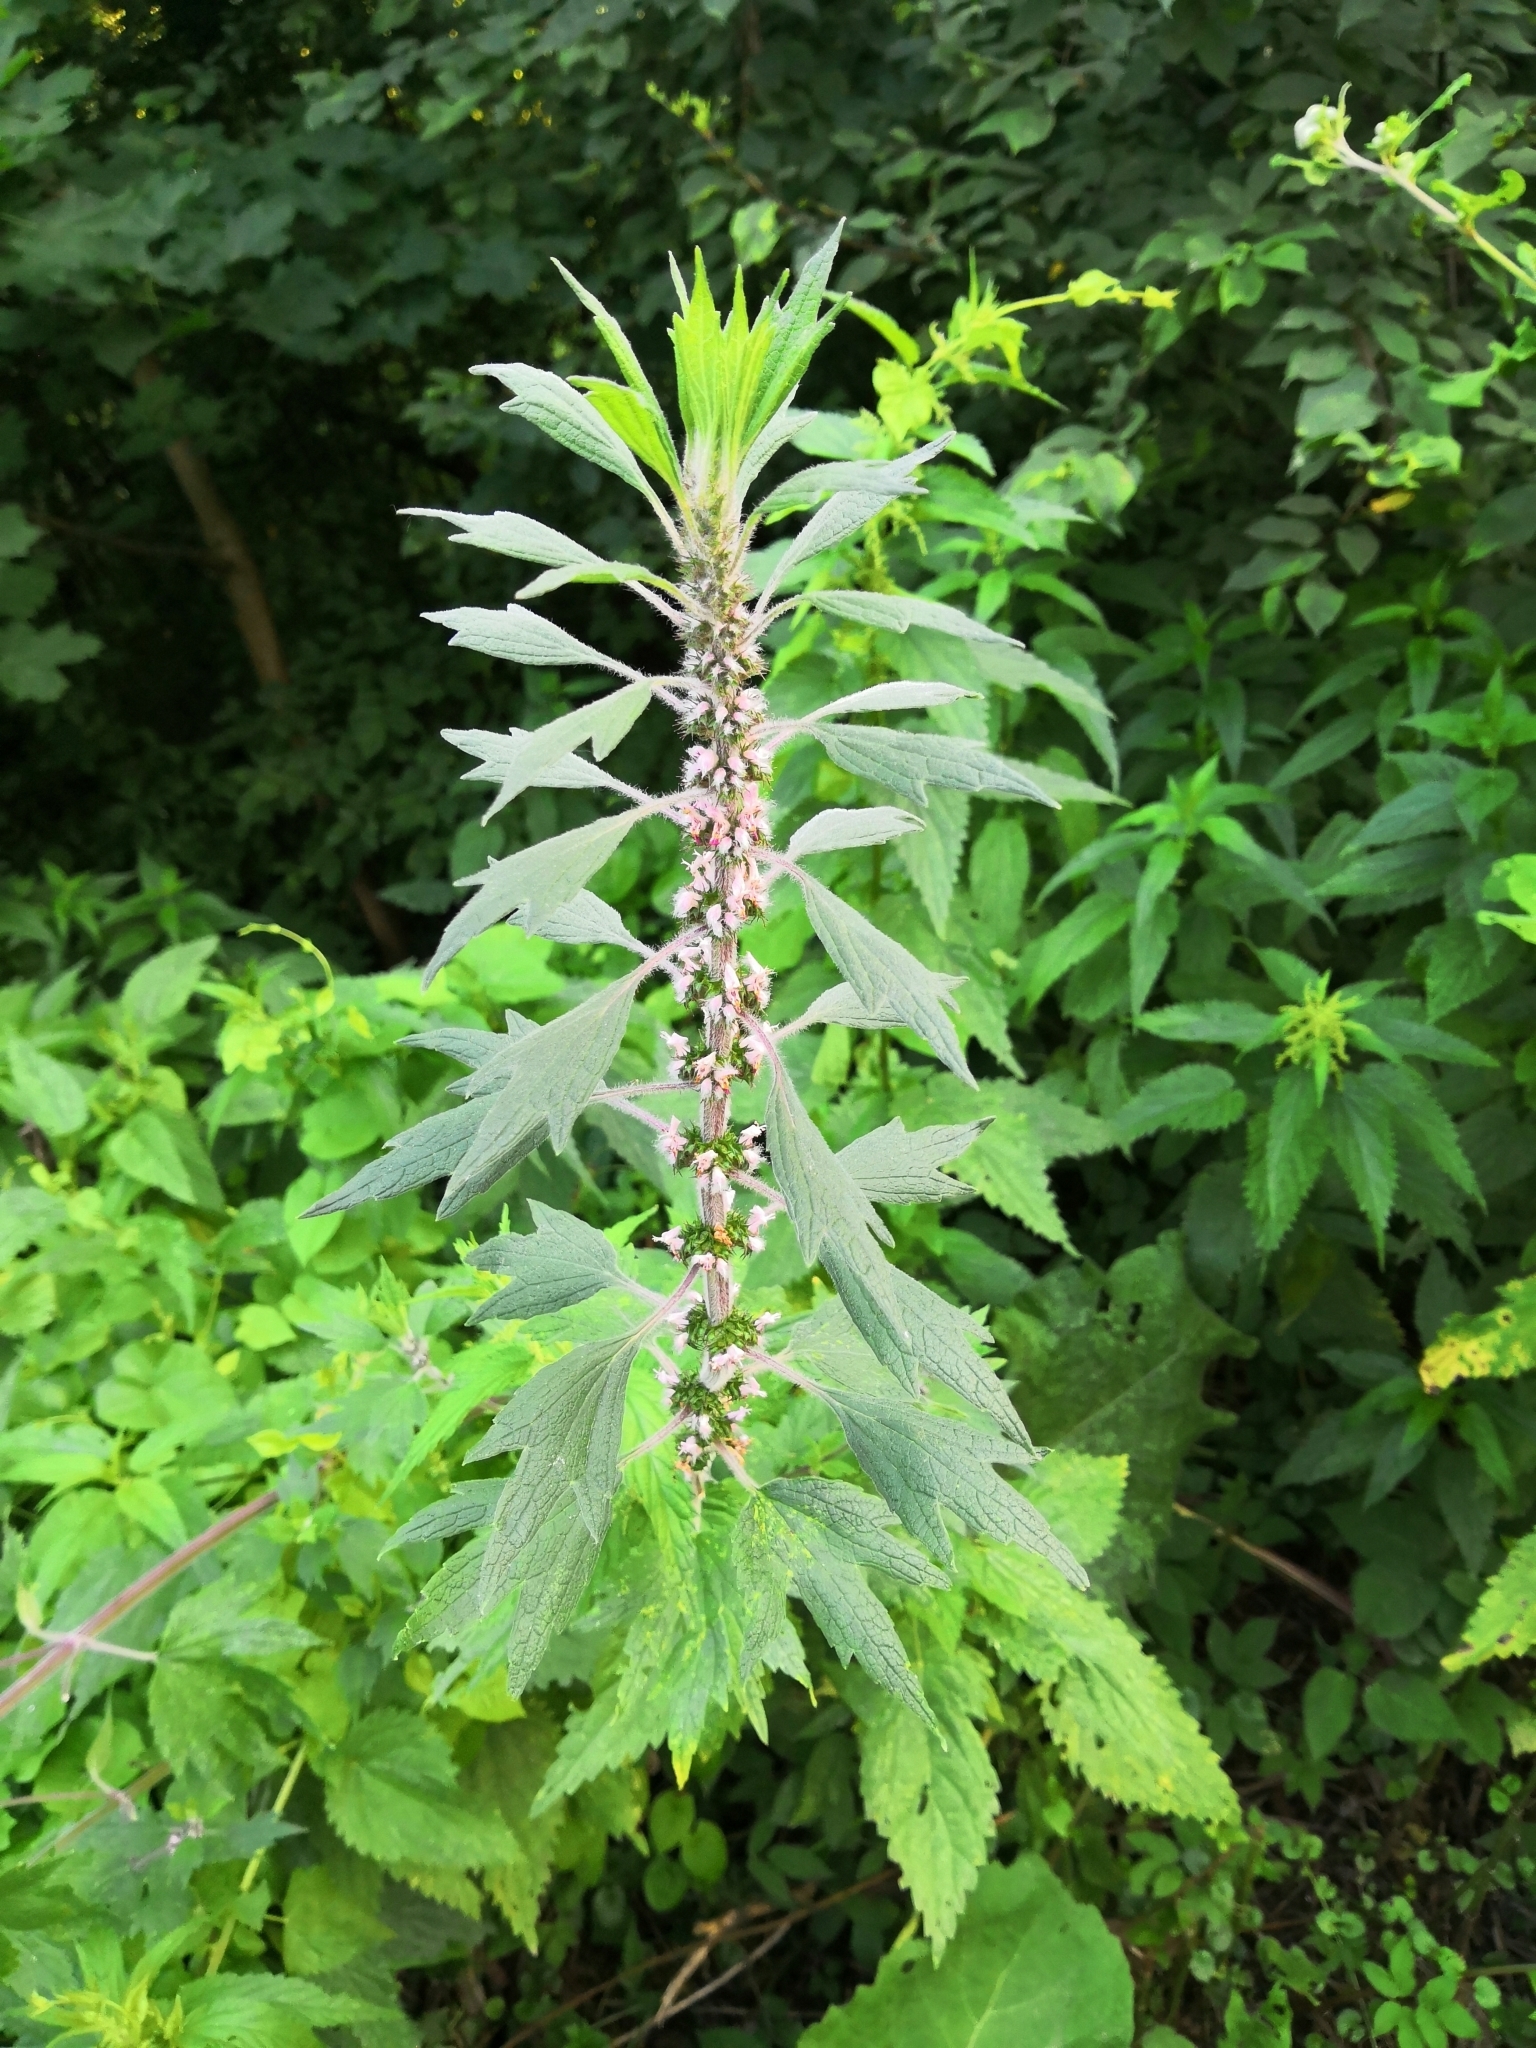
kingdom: Plantae
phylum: Tracheophyta
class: Magnoliopsida
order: Lamiales
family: Lamiaceae
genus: Leonurus
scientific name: Leonurus quinquelobatus
